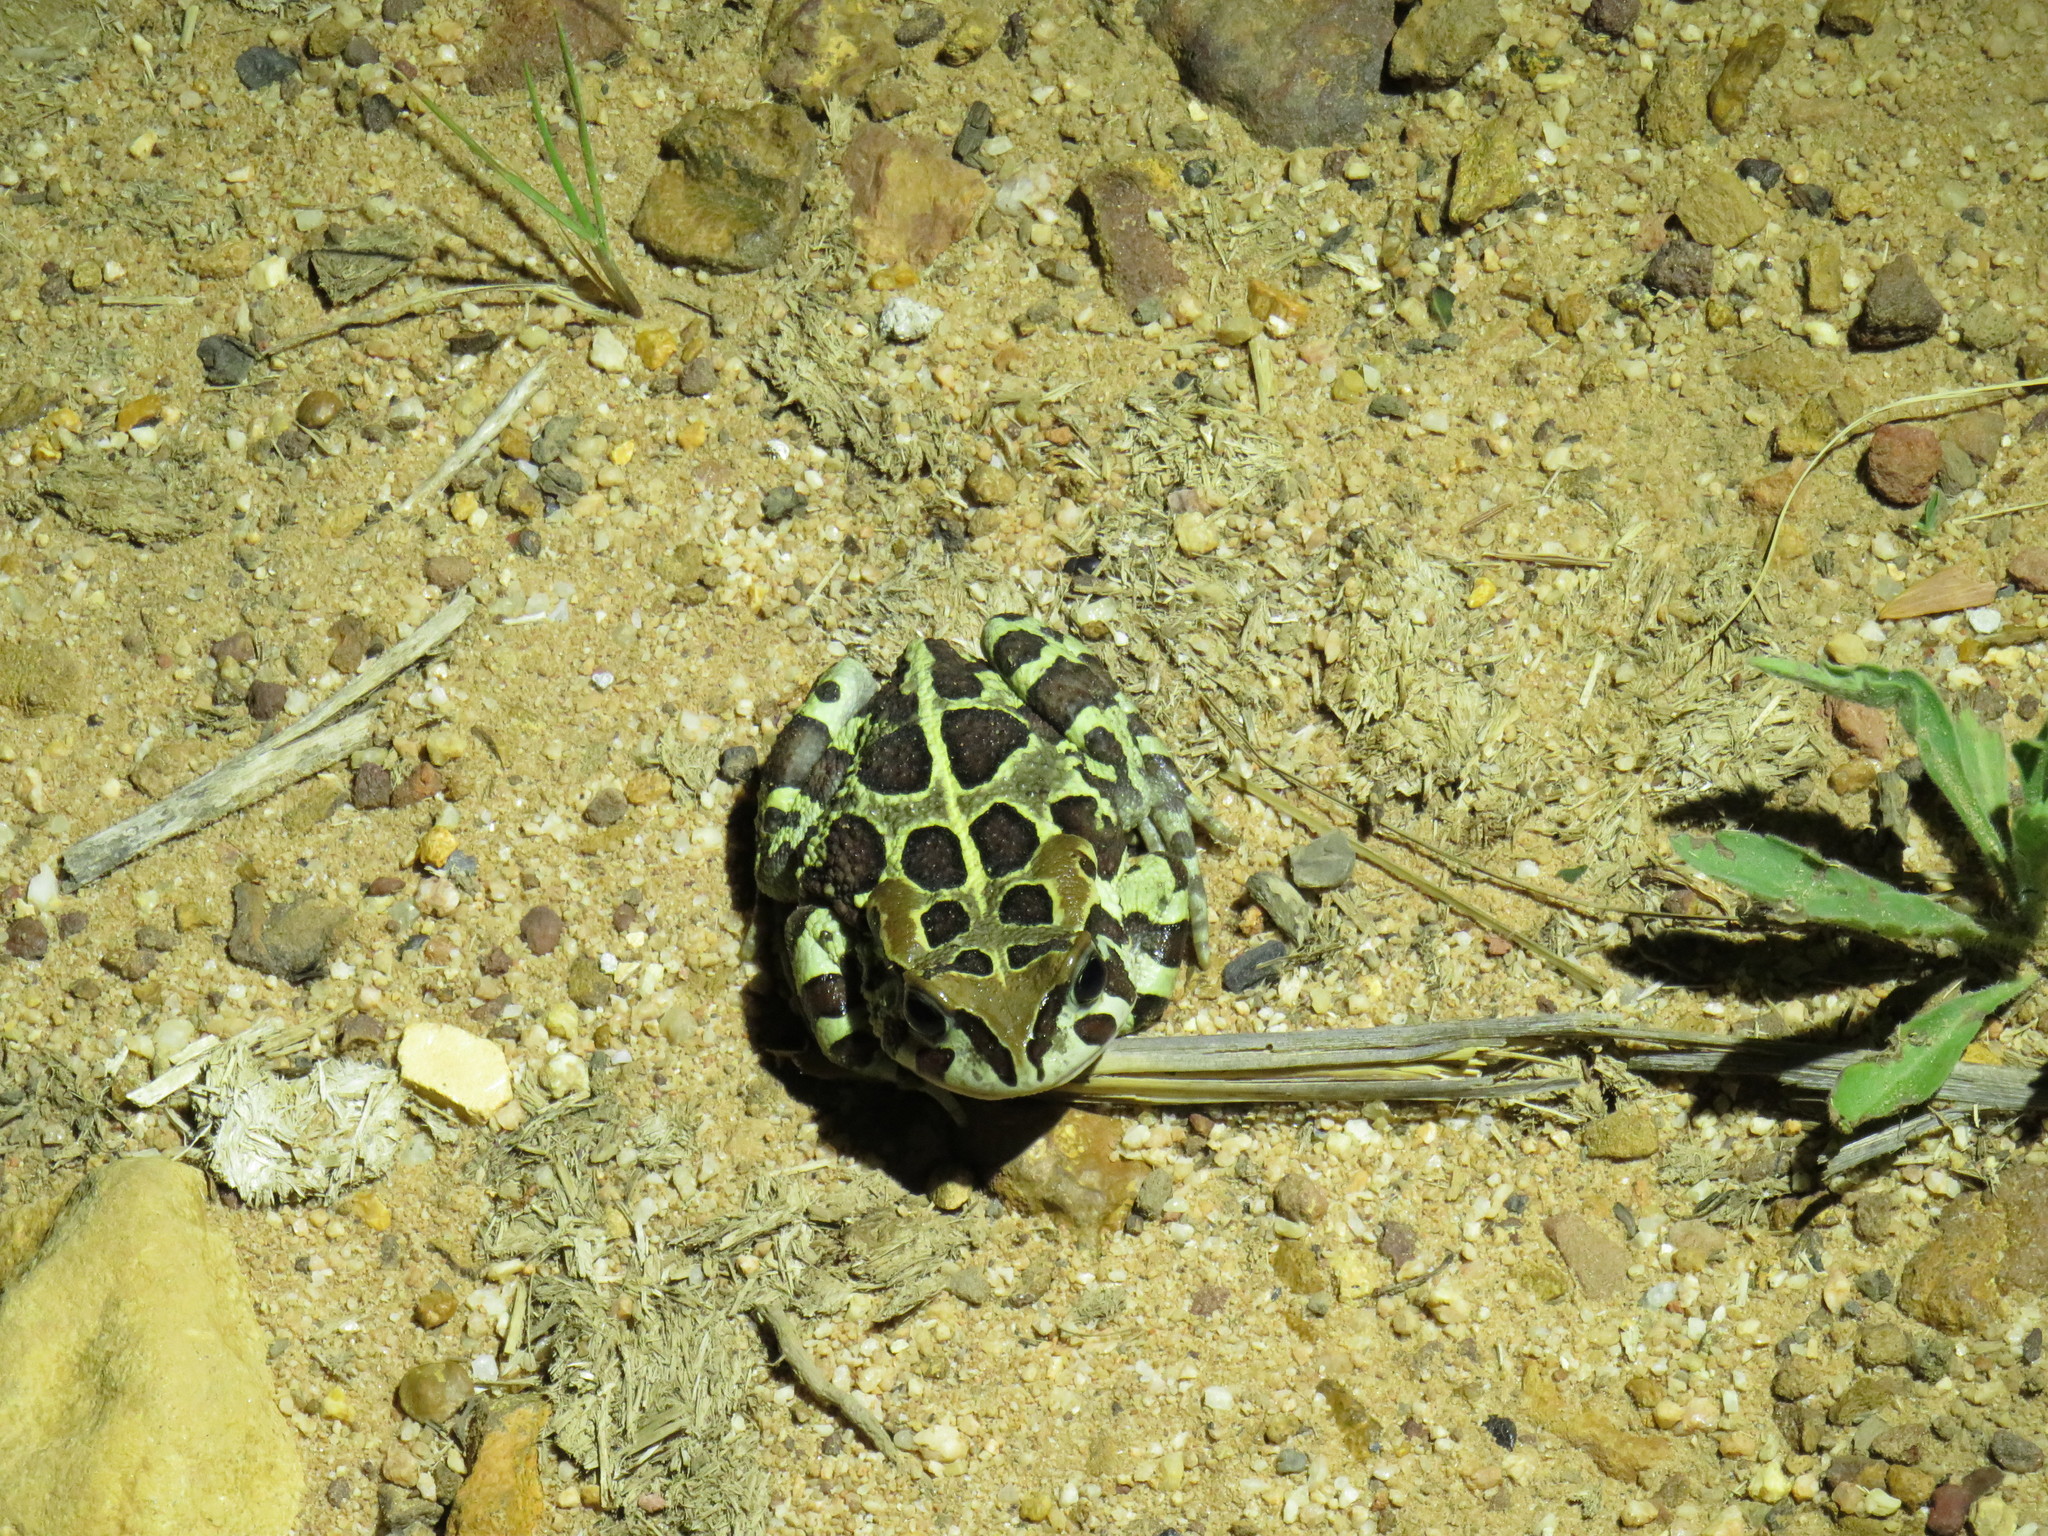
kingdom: Animalia
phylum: Chordata
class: Amphibia
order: Anura
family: Bufonidae
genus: Sclerophrys
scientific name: Sclerophrys pantherina
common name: Panther toad
